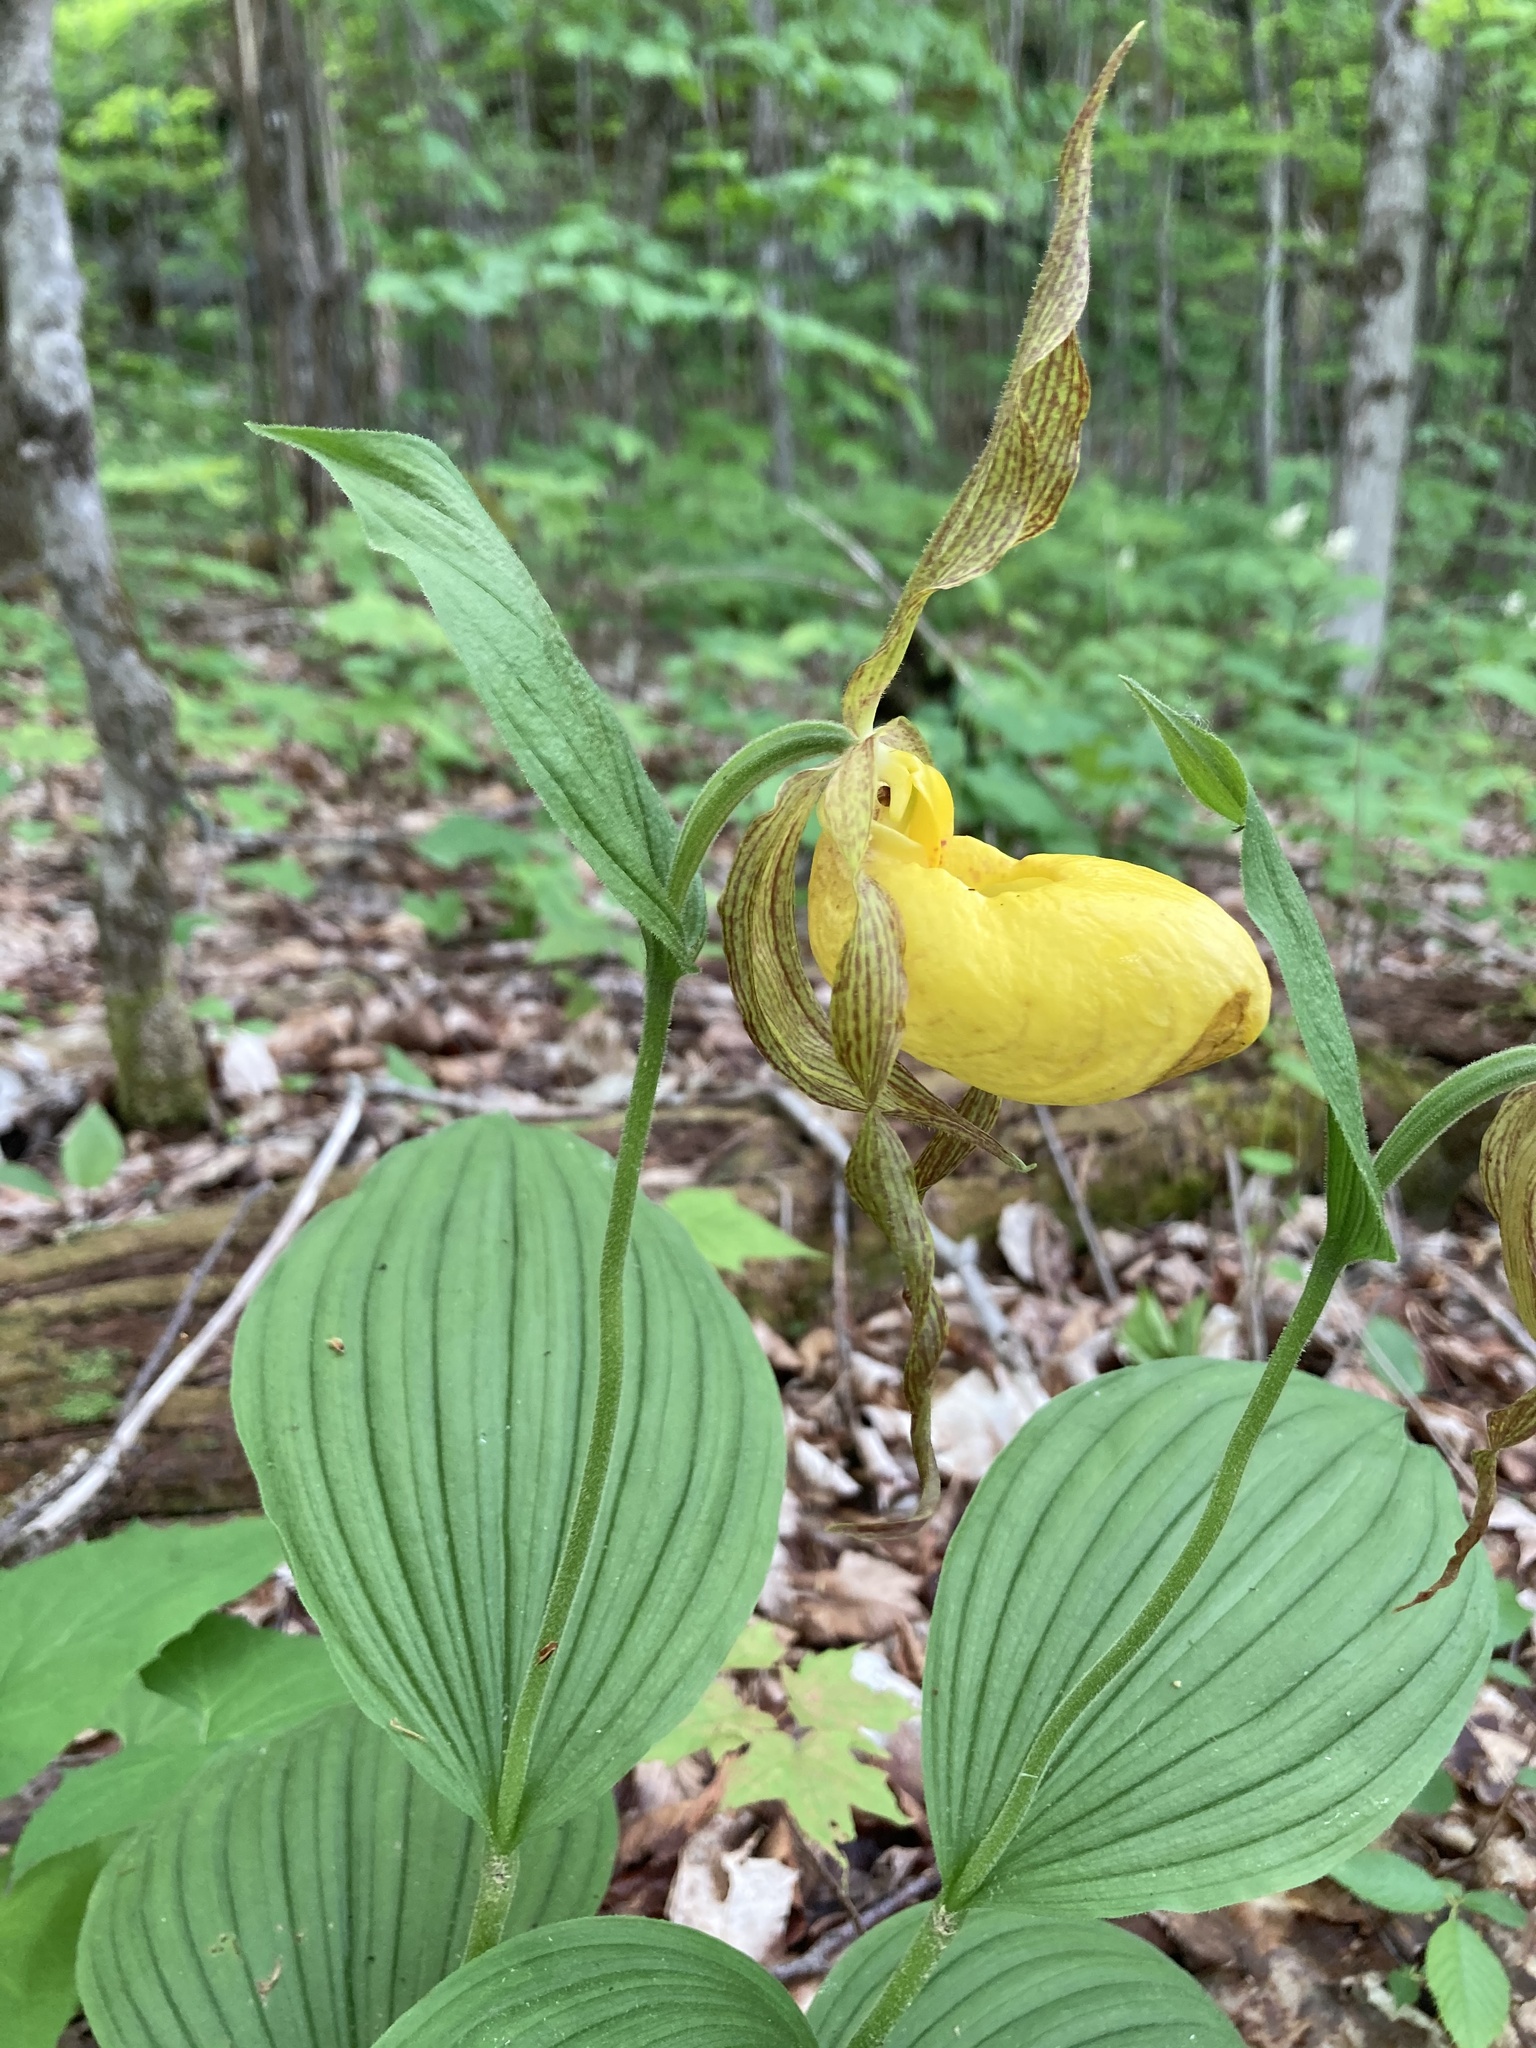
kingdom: Plantae
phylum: Tracheophyta
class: Liliopsida
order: Asparagales
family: Orchidaceae
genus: Cypripedium
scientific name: Cypripedium parviflorum
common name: American yellow lady's-slipper
